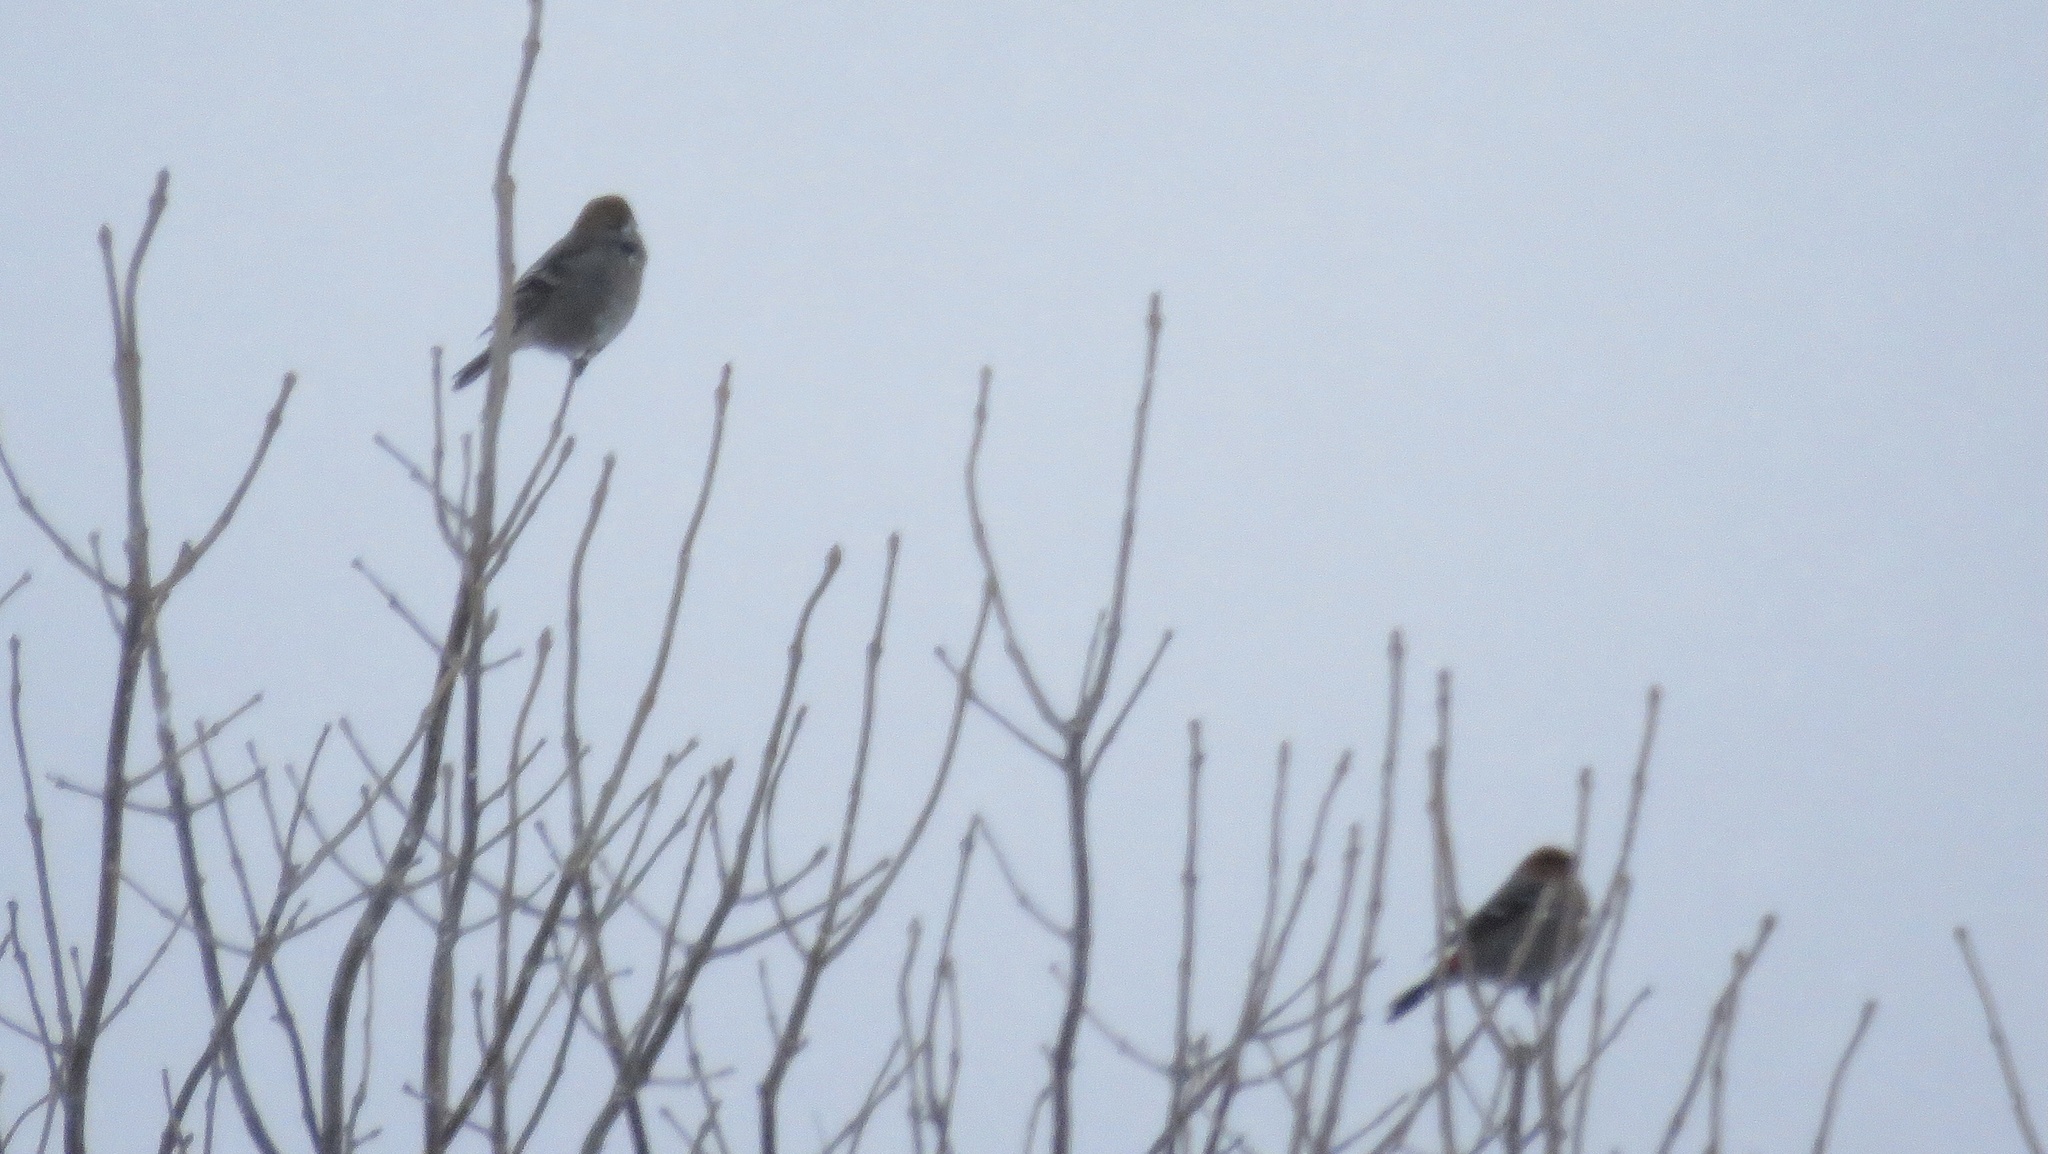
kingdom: Animalia
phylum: Chordata
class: Aves
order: Passeriformes
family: Fringillidae
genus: Pinicola
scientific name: Pinicola enucleator
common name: Pine grosbeak
